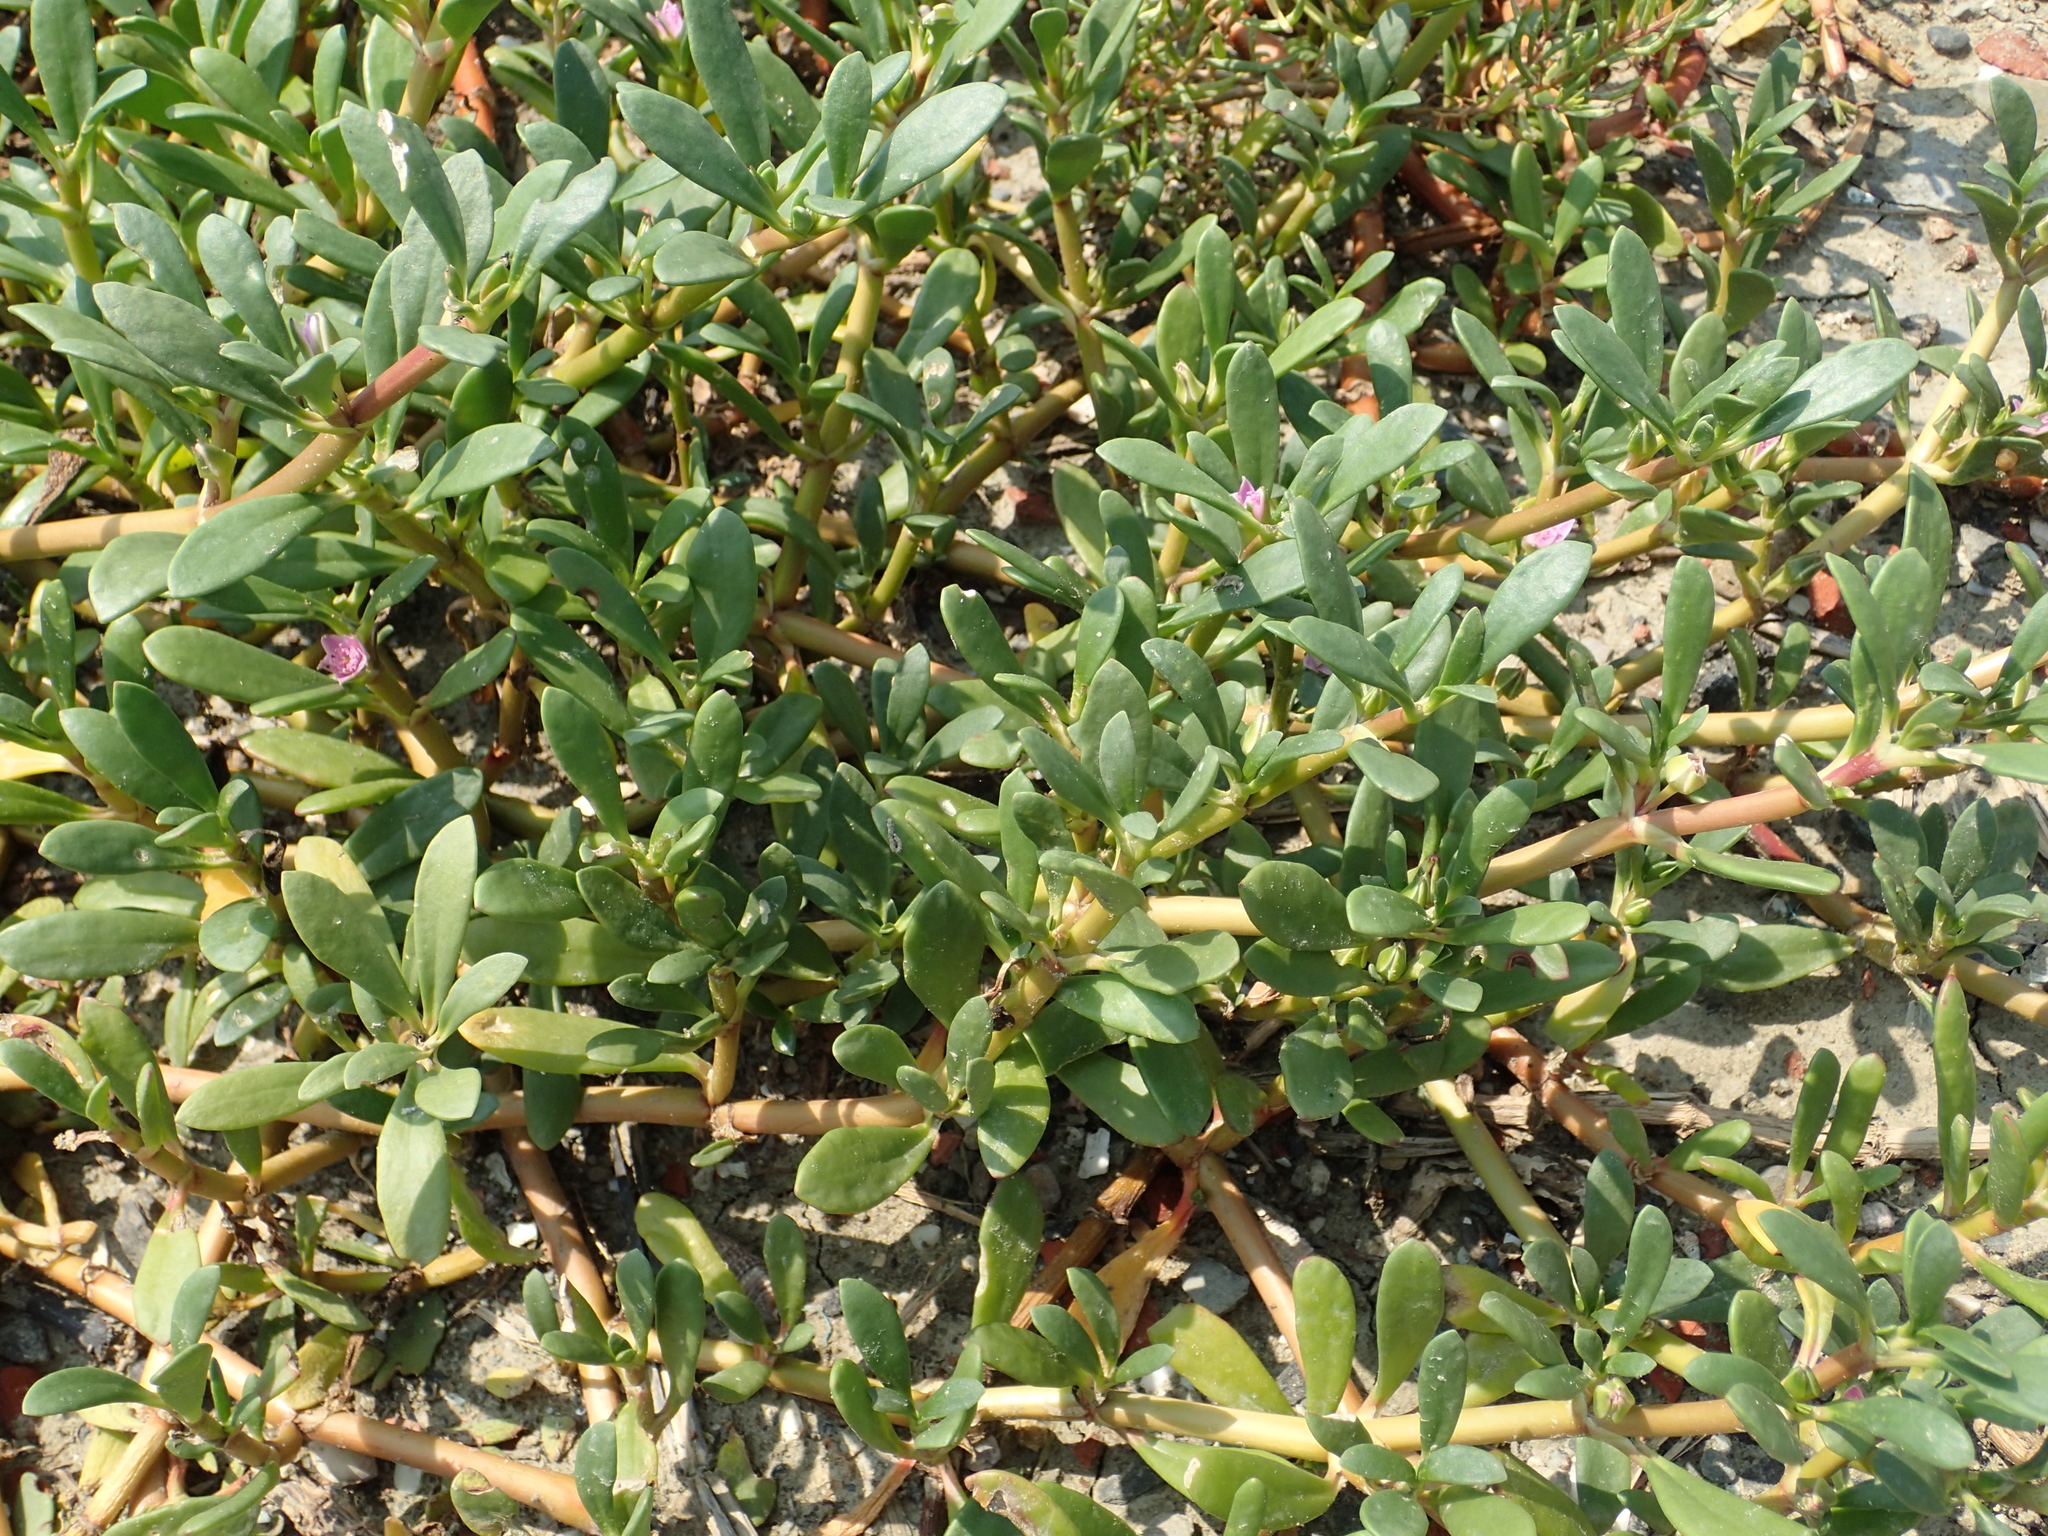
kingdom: Plantae
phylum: Tracheophyta
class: Magnoliopsida
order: Caryophyllales
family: Aizoaceae
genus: Sesuvium
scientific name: Sesuvium portulacastrum
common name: Sea-purslane
